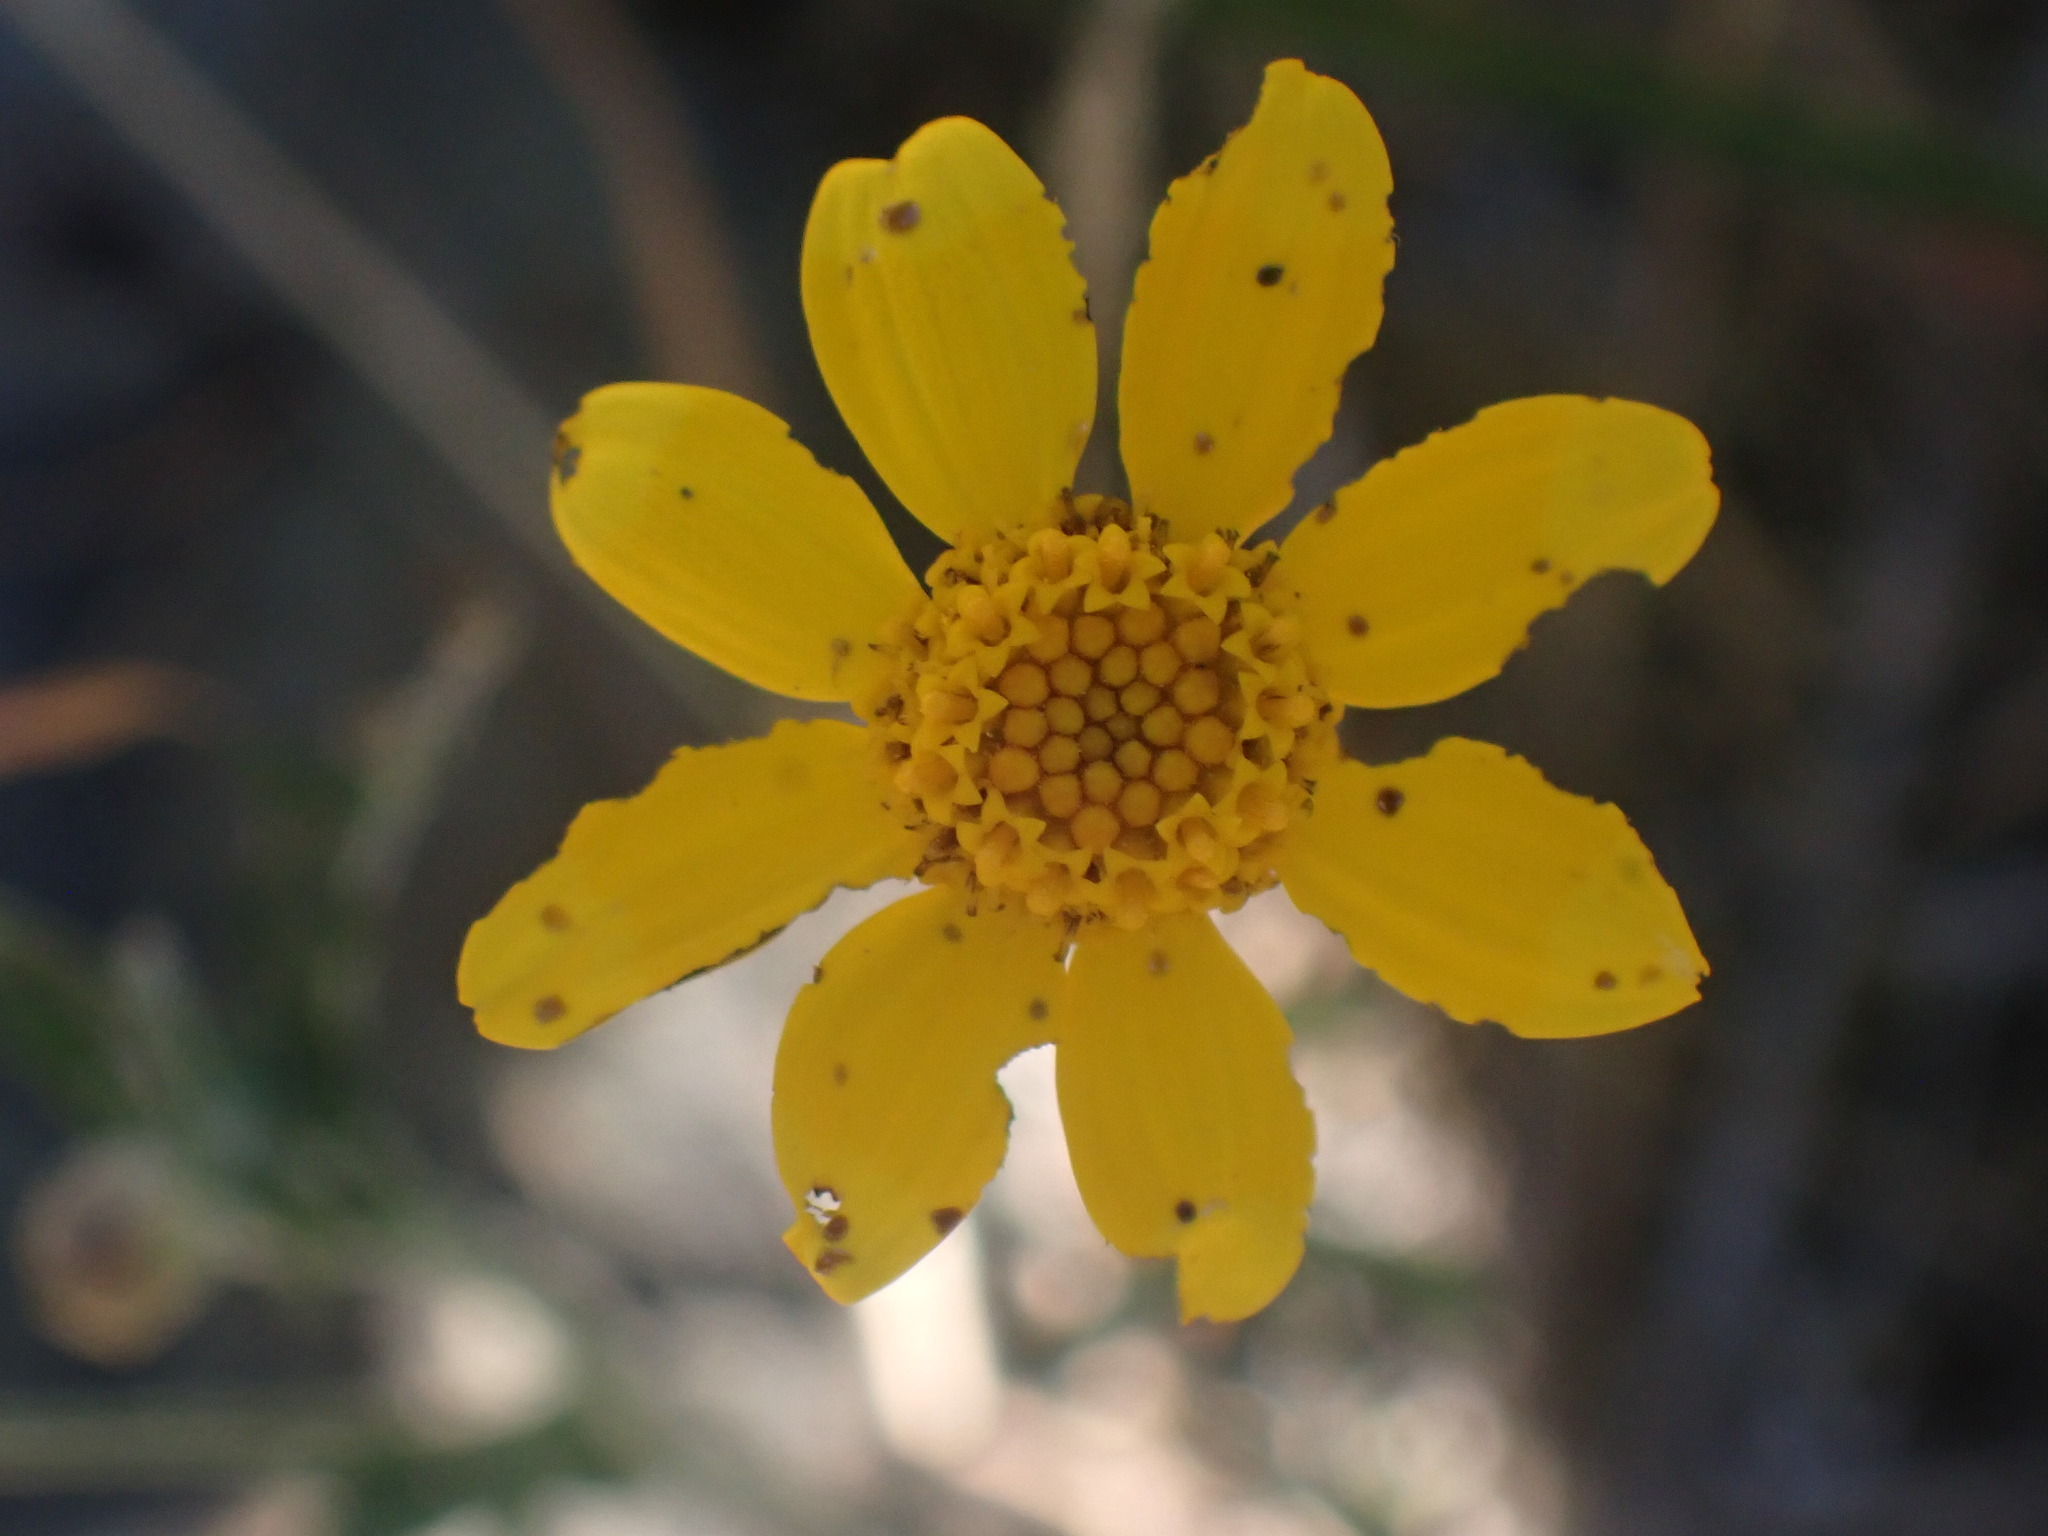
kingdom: Plantae
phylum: Tracheophyta
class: Magnoliopsida
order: Asterales
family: Asteraceae
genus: Eriophyllum
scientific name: Eriophyllum lanatum
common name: Common woolly-sunflower
